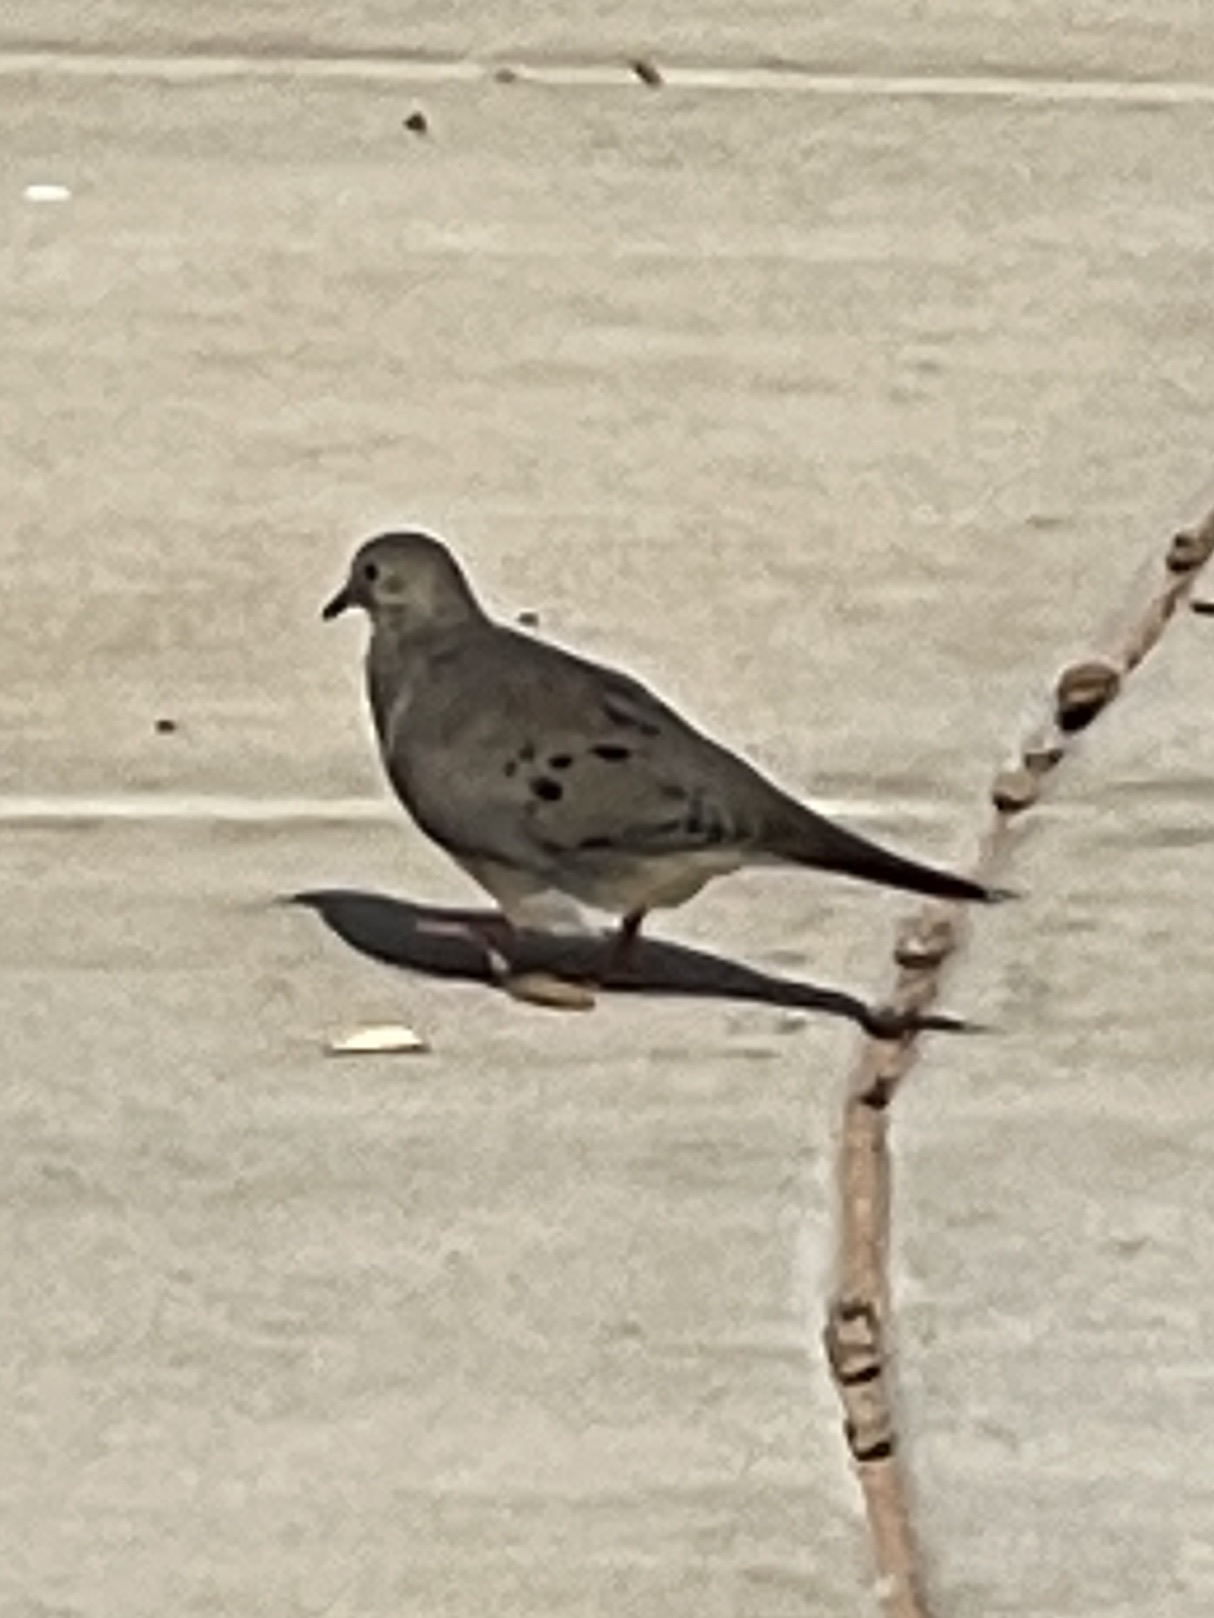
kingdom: Animalia
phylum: Chordata
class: Aves
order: Columbiformes
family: Columbidae
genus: Zenaida
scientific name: Zenaida macroura
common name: Mourning dove
